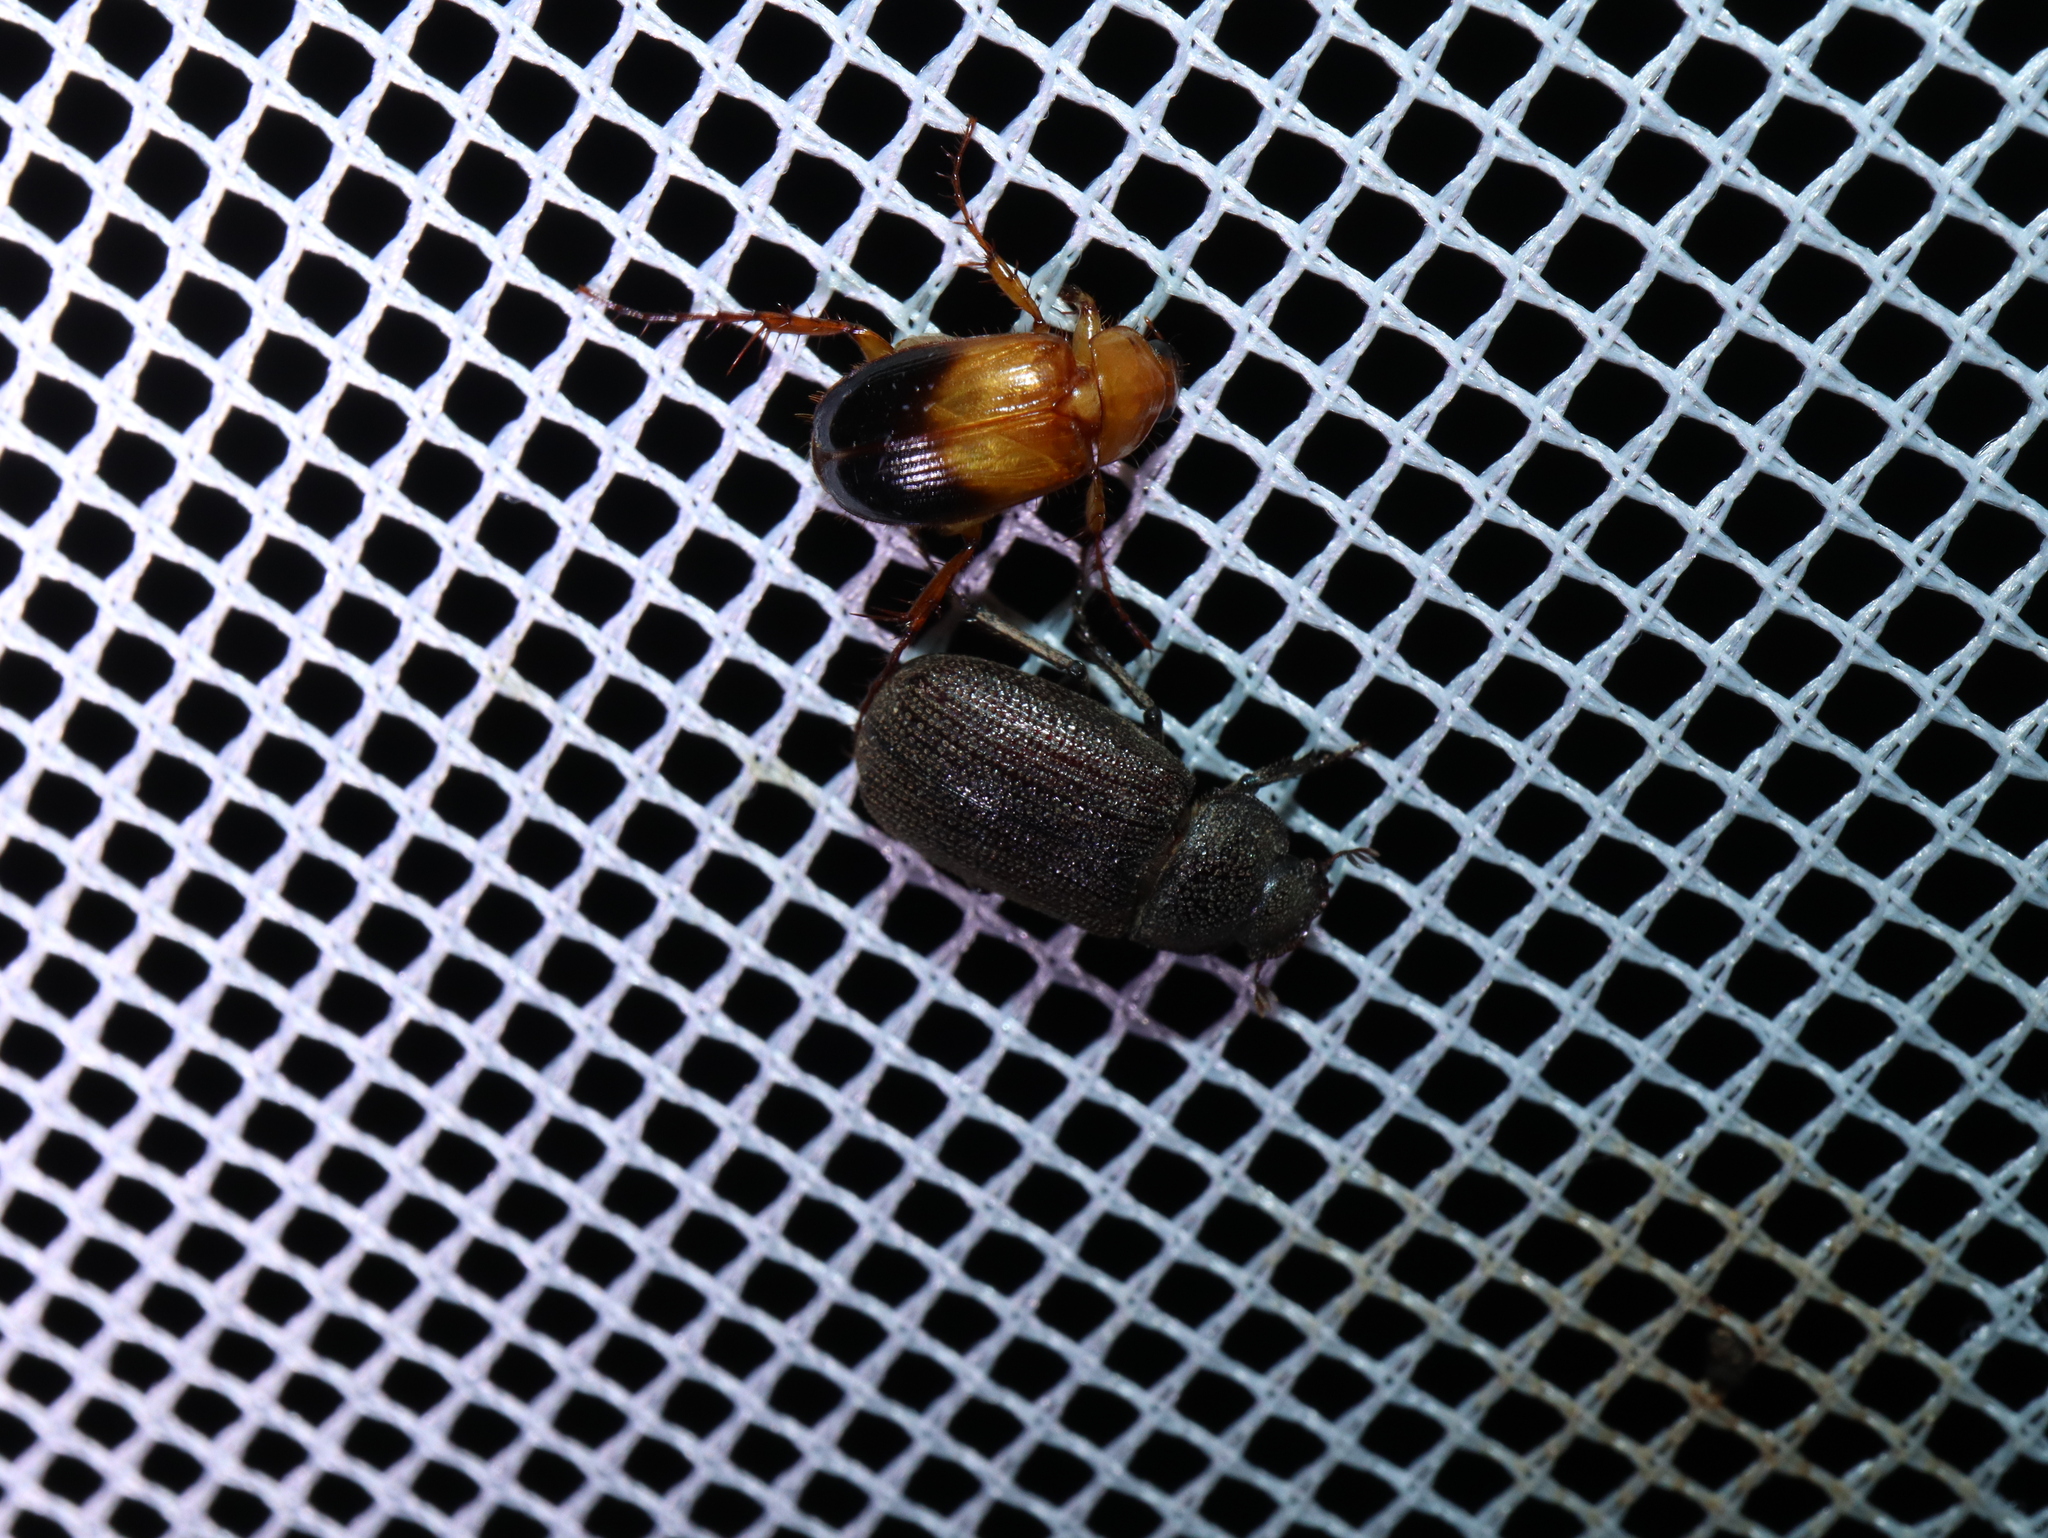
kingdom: Animalia
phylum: Arthropoda
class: Insecta
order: Coleoptera
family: Scarabaeidae
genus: Phyllotocus
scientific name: Phyllotocus macleayi
